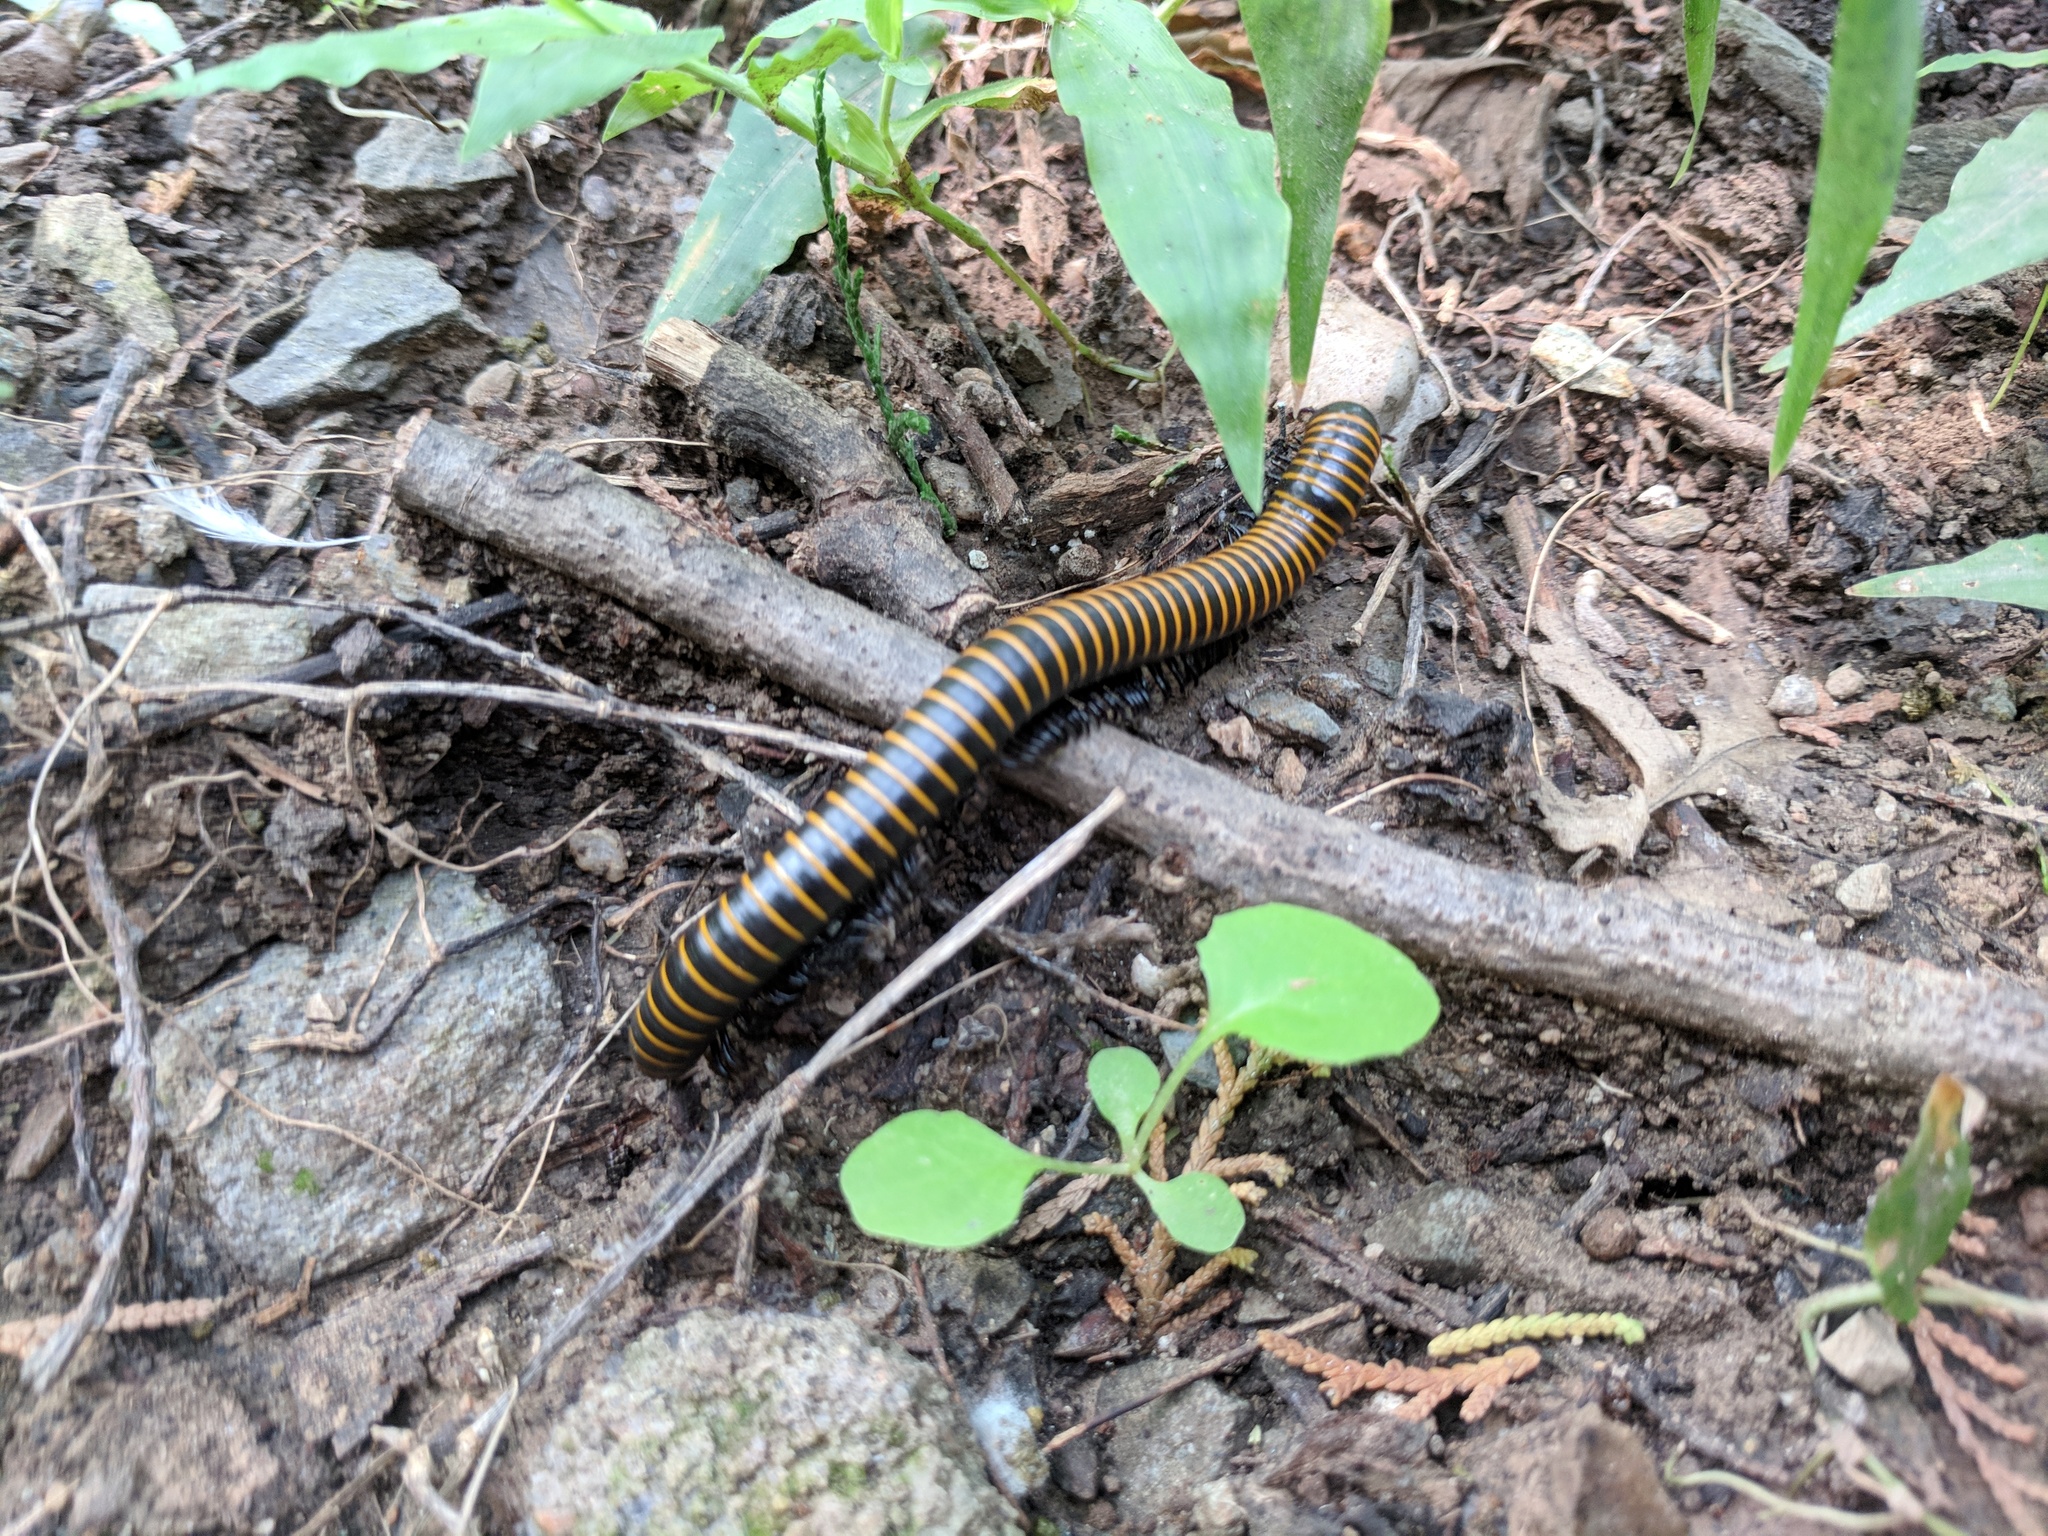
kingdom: Animalia
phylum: Arthropoda
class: Diplopoda
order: Spirobolida
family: Spirobolidae
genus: Spirobolus
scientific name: Spirobolus bungii
